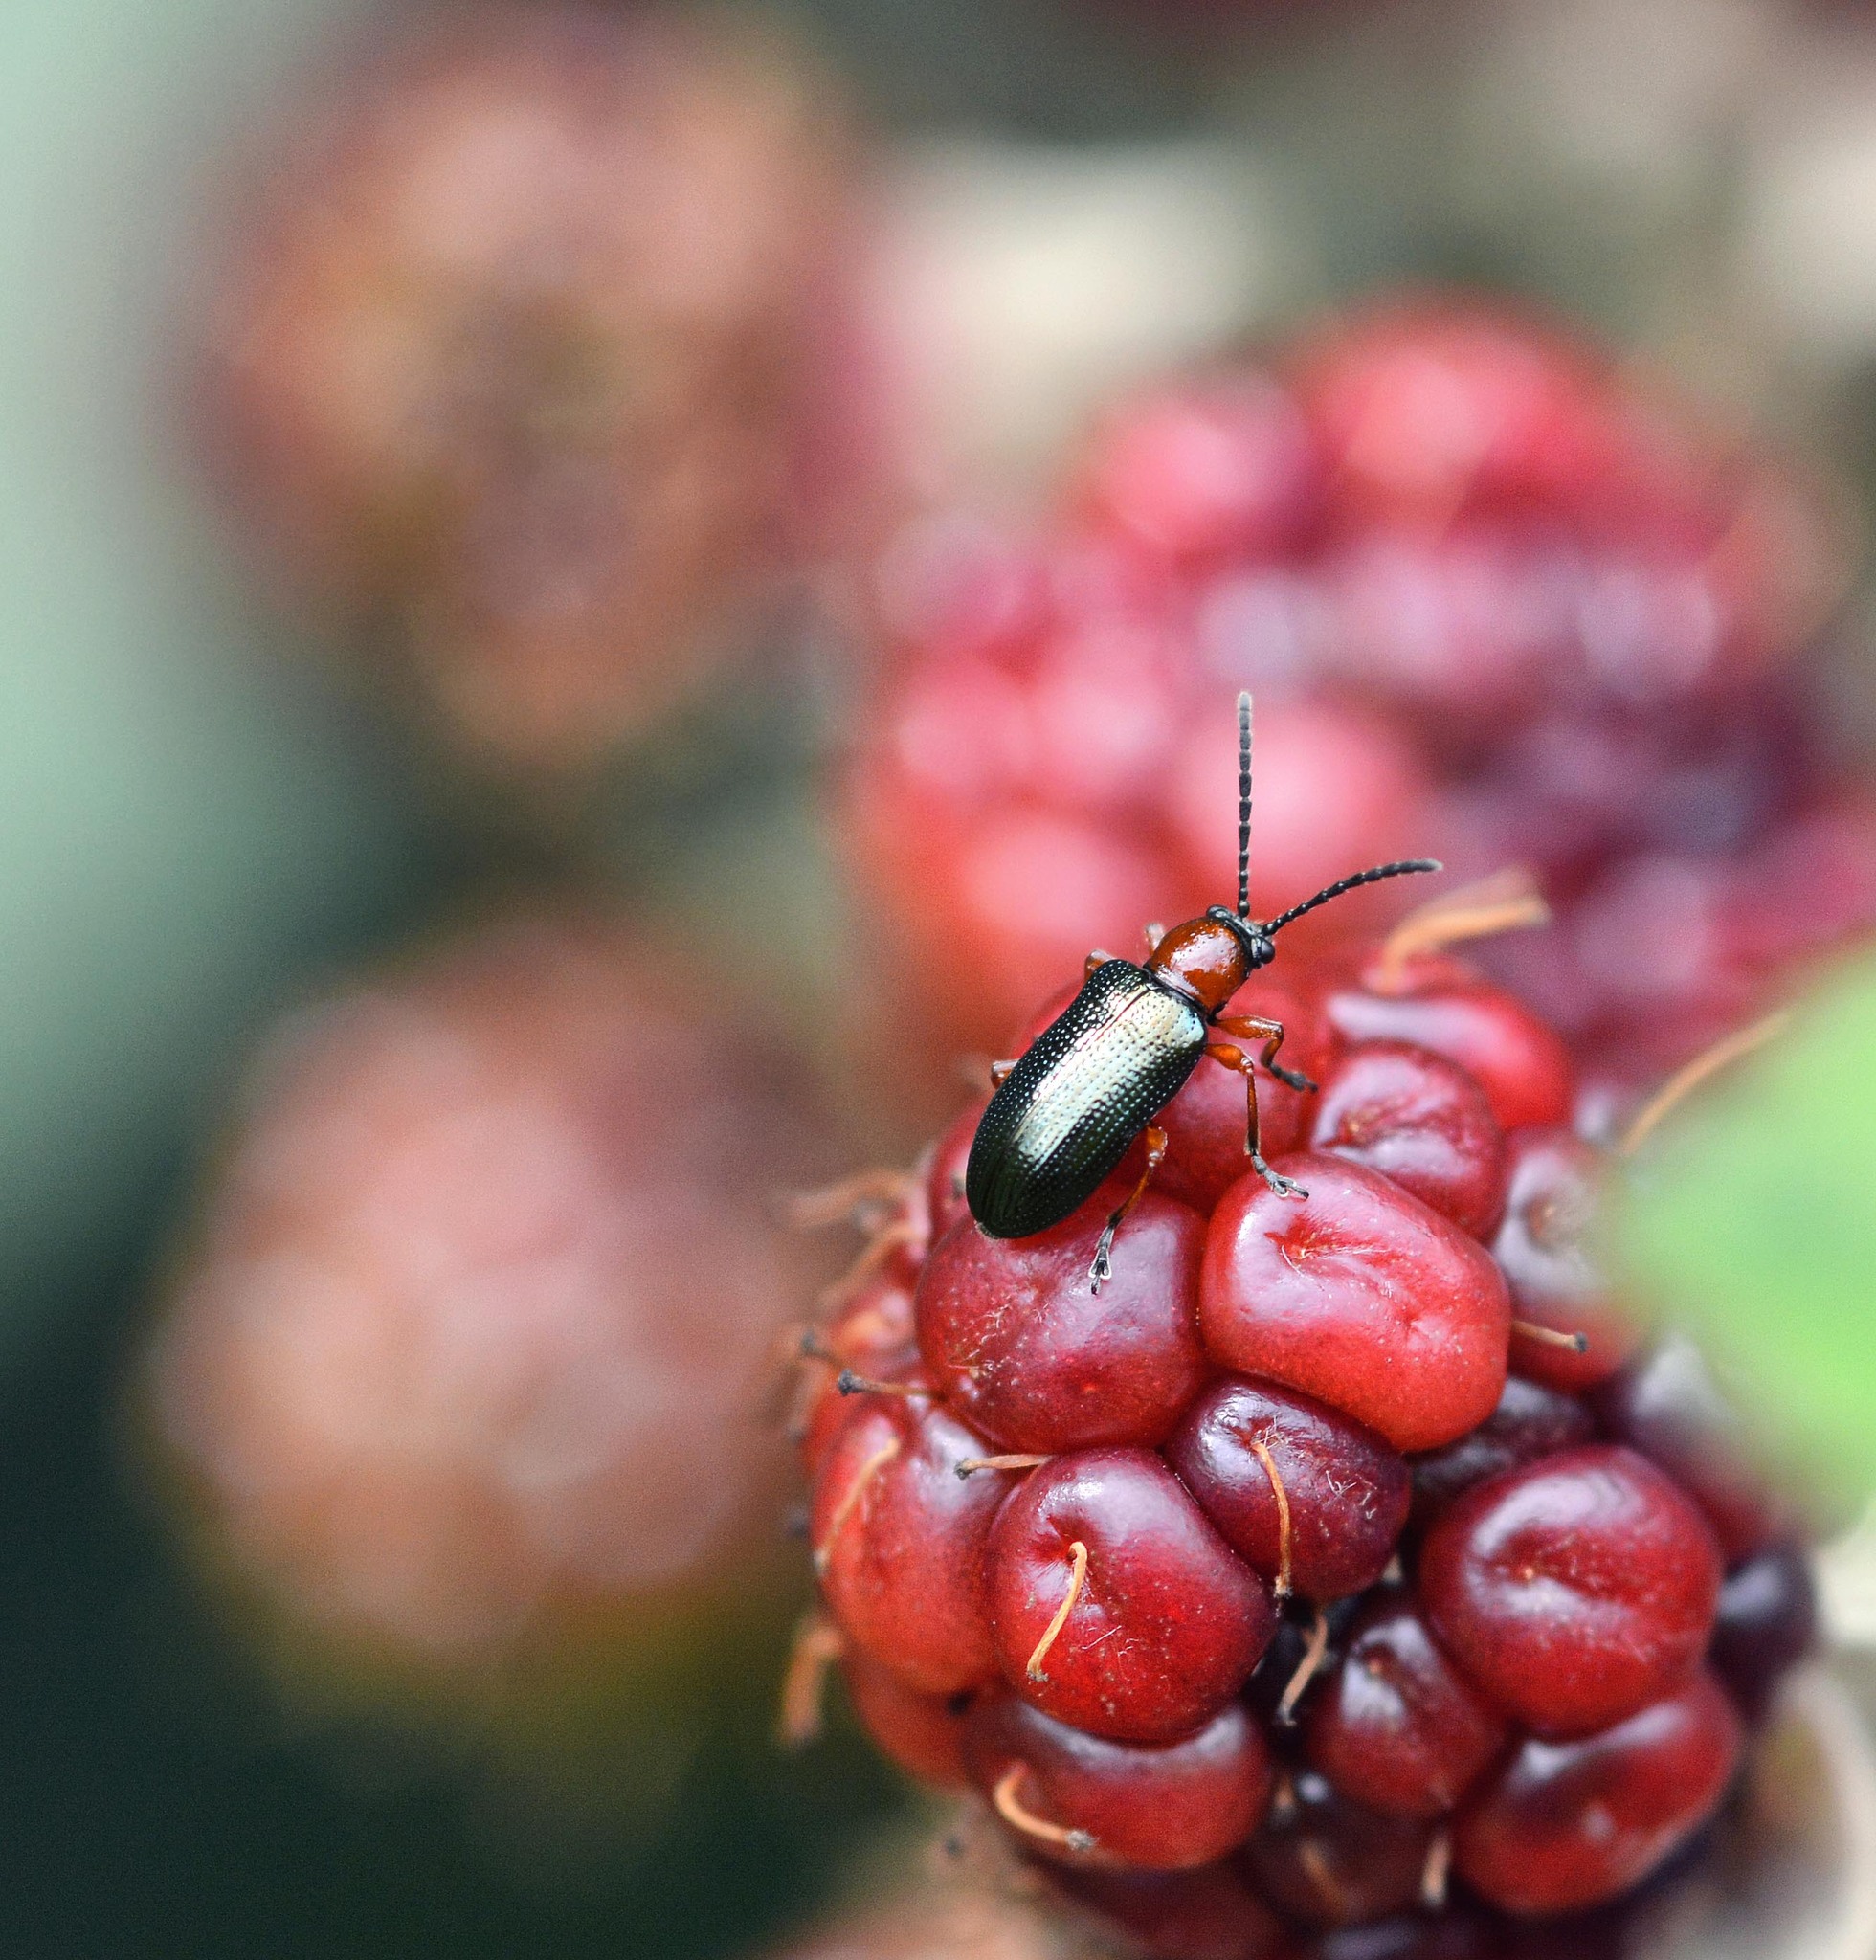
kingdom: Animalia
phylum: Arthropoda
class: Insecta
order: Coleoptera
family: Chrysomelidae
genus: Oulema
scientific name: Oulema
